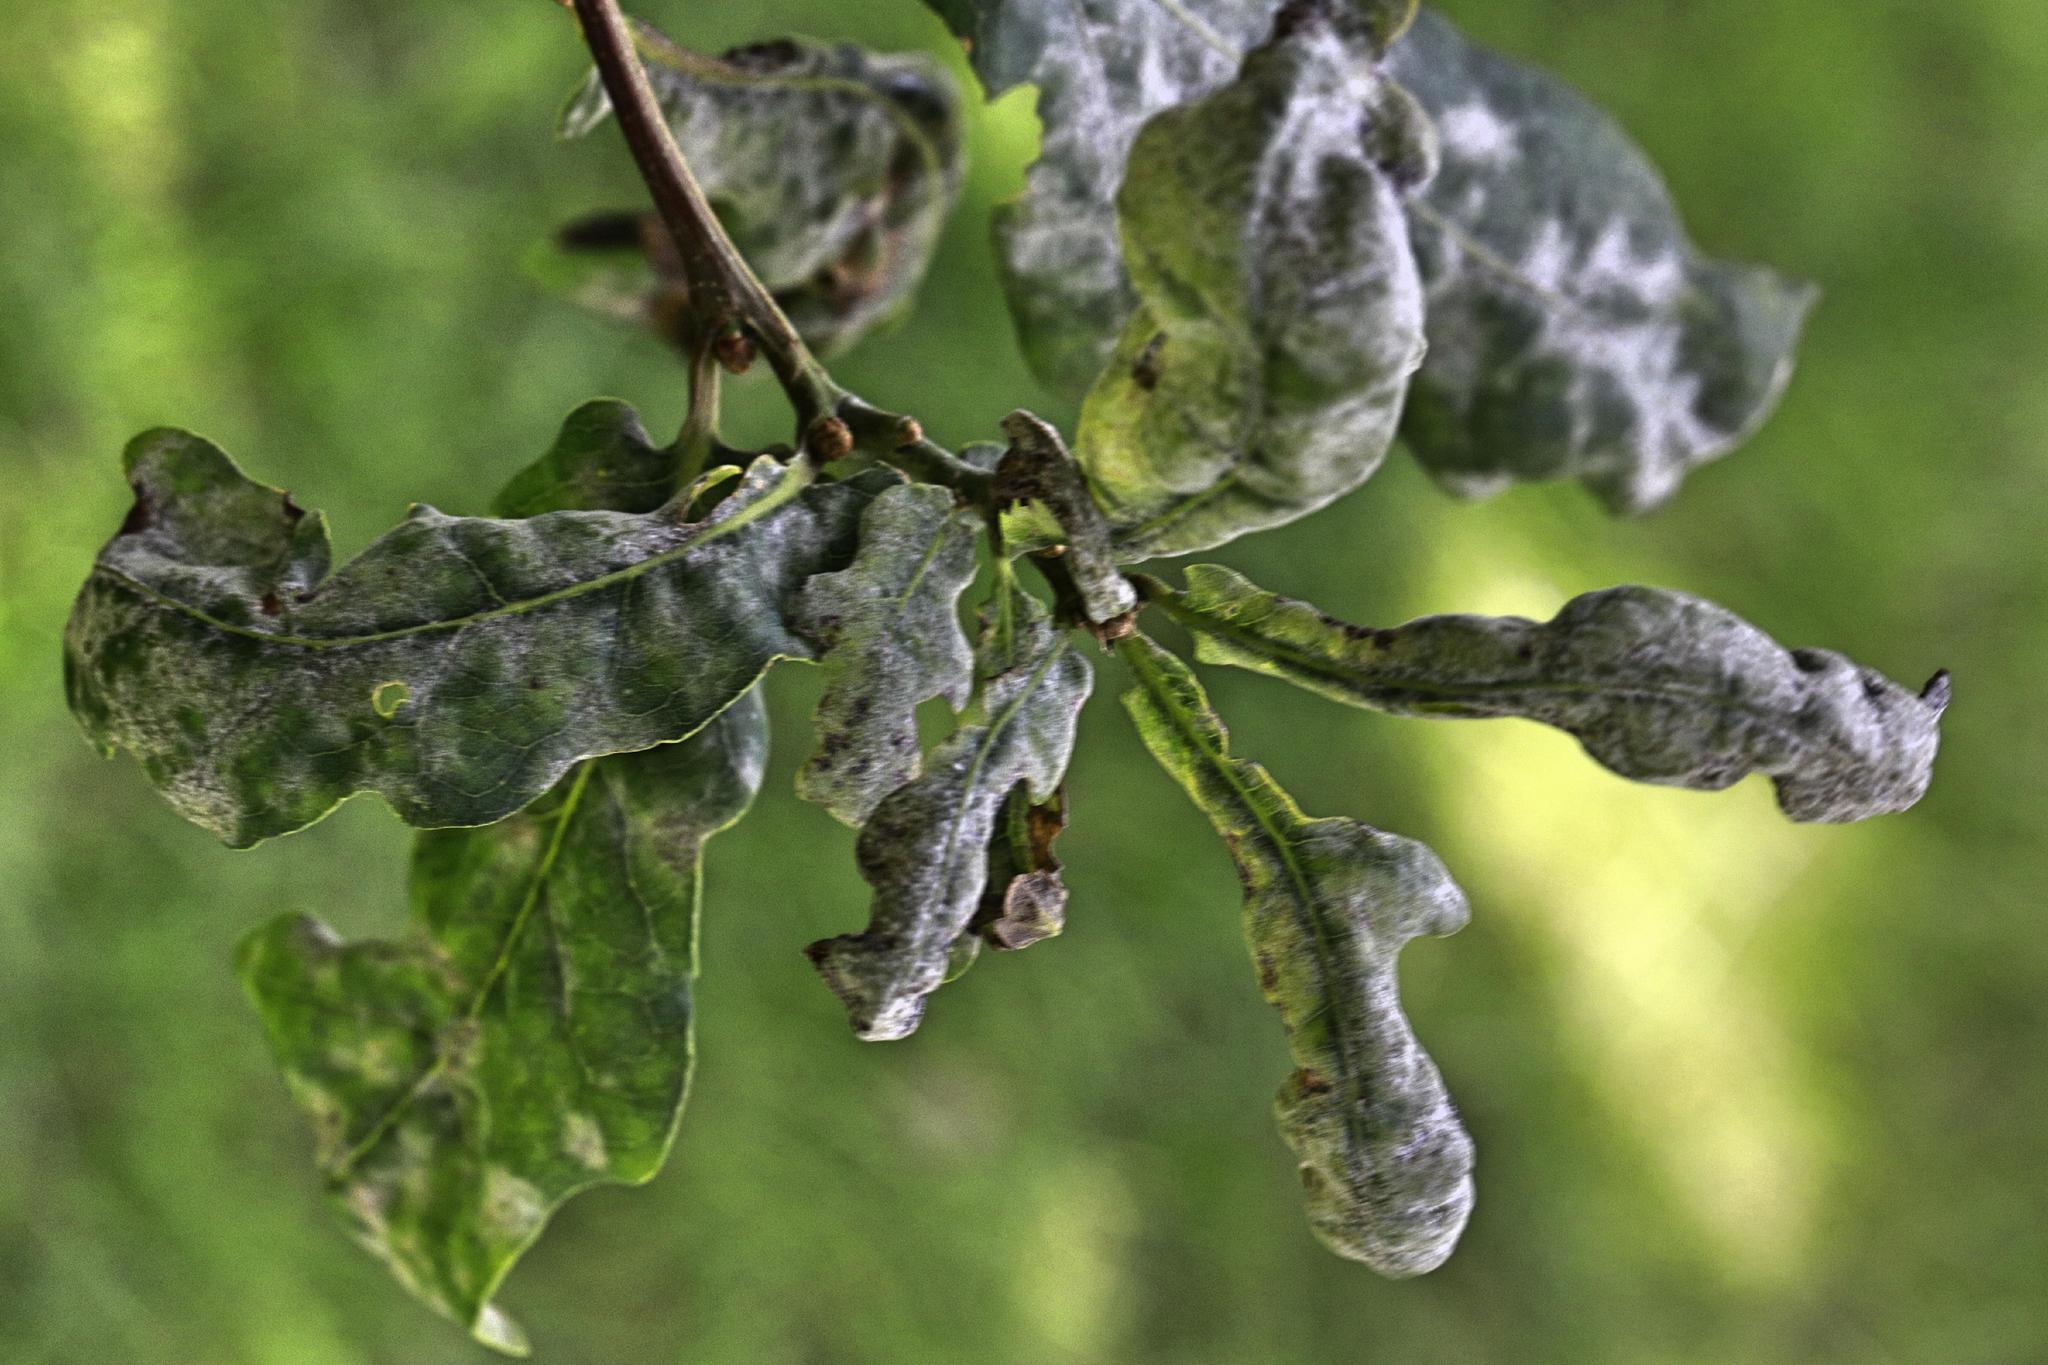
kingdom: Fungi
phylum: Ascomycota
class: Leotiomycetes
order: Helotiales
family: Erysiphaceae
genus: Erysiphe
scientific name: Erysiphe alphitoides
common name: Oak mildew
